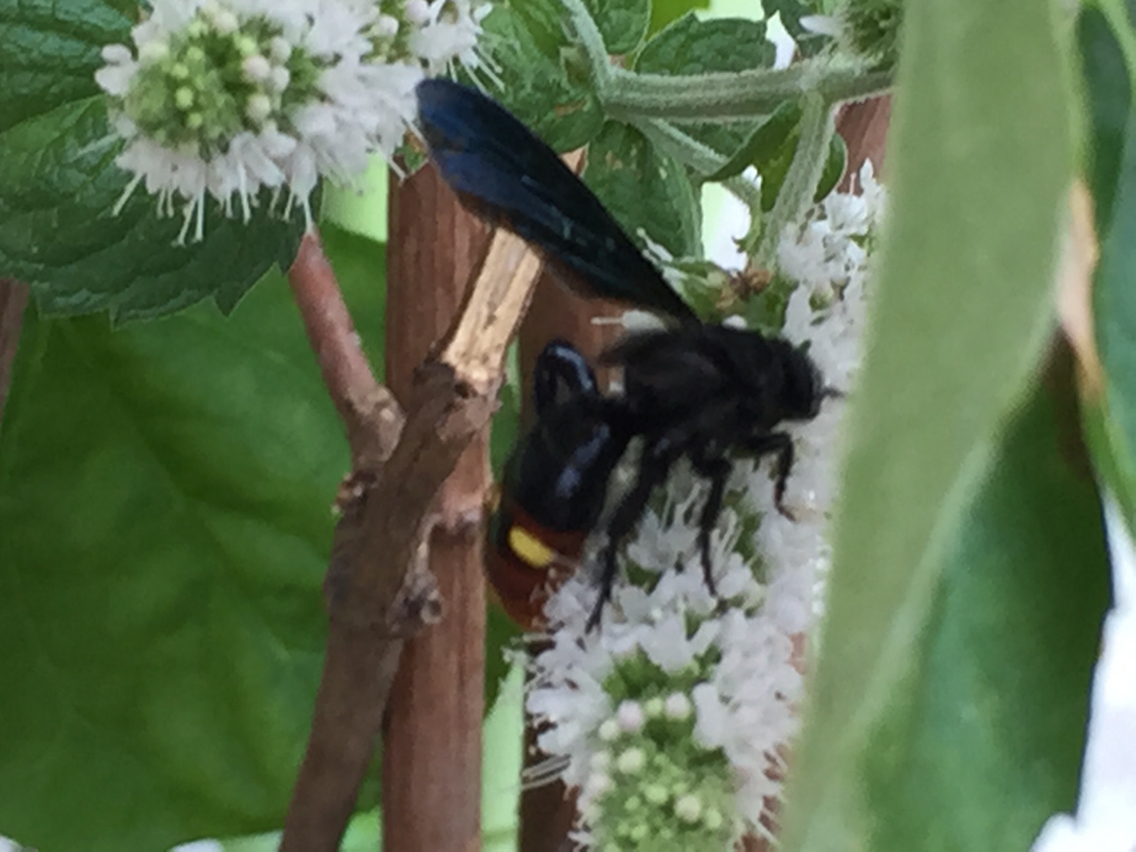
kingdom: Animalia
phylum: Arthropoda
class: Insecta
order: Hymenoptera
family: Scoliidae
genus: Scolia
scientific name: Scolia dubia
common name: Blue-winged scoliid wasp
